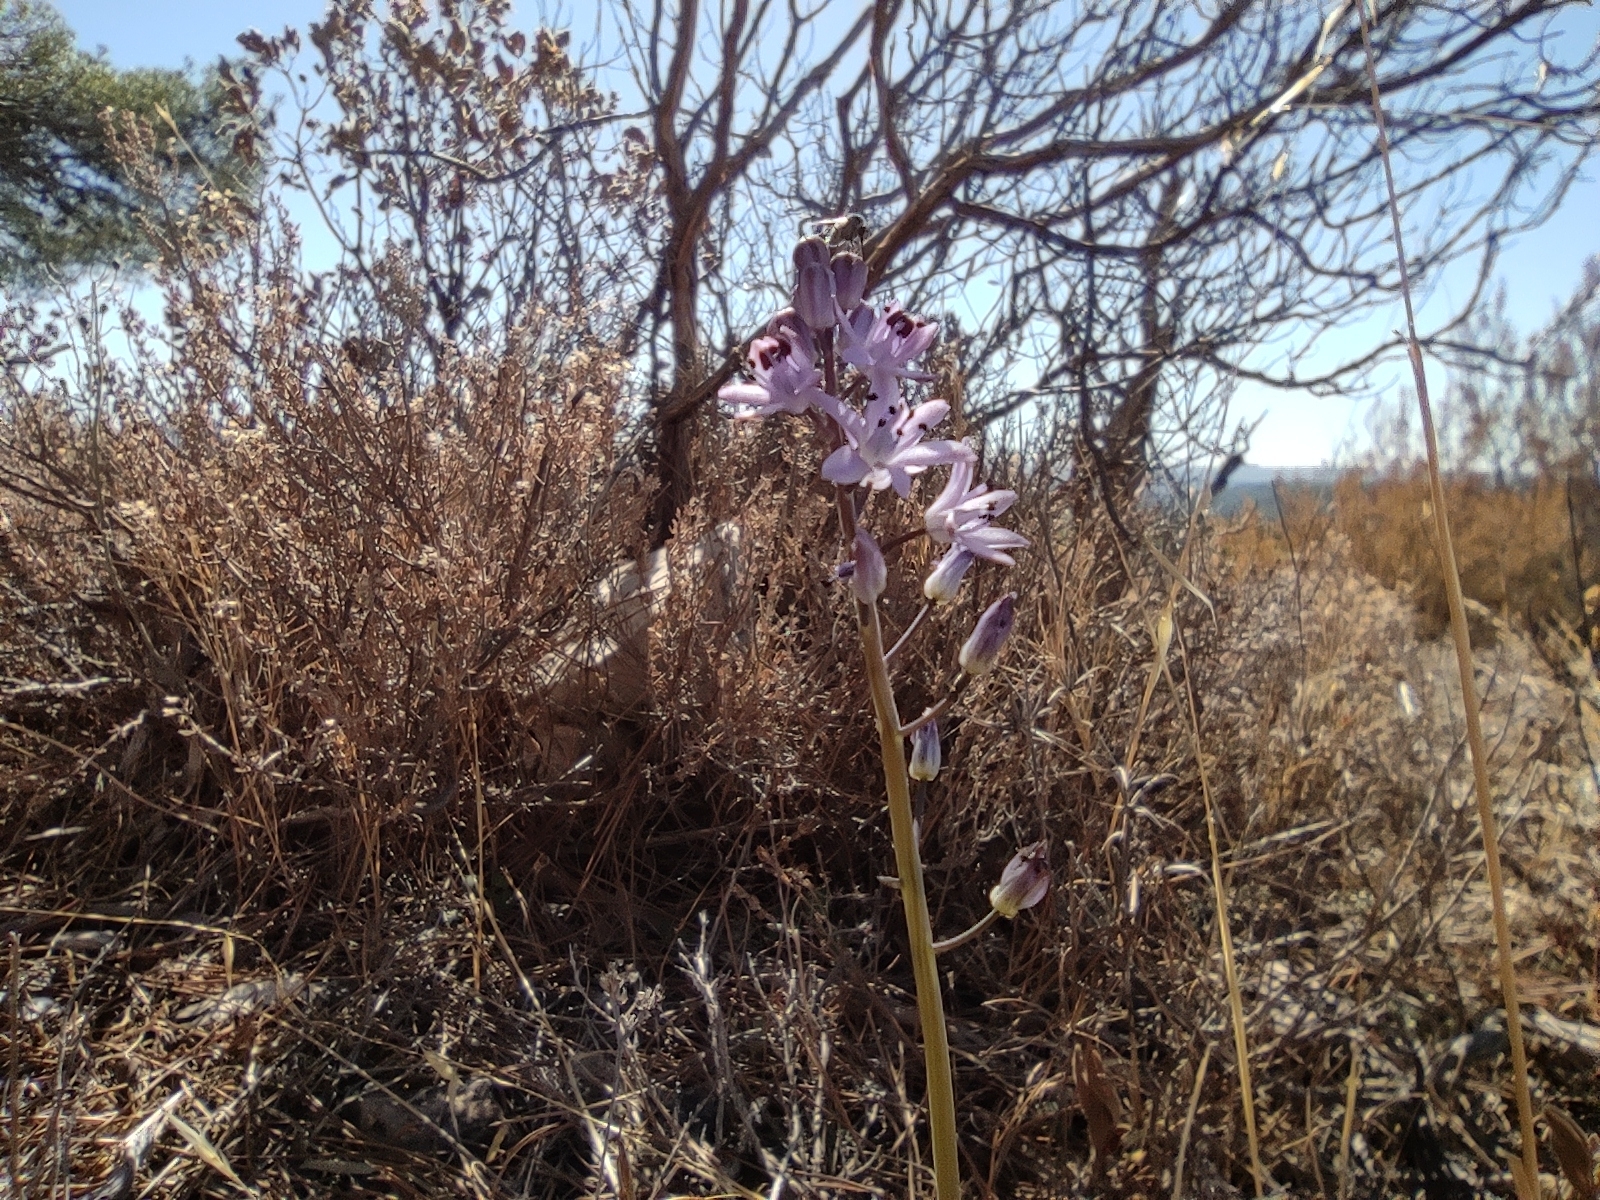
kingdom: Plantae
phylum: Tracheophyta
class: Liliopsida
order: Asparagales
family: Asparagaceae
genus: Prospero
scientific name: Prospero autumnale
